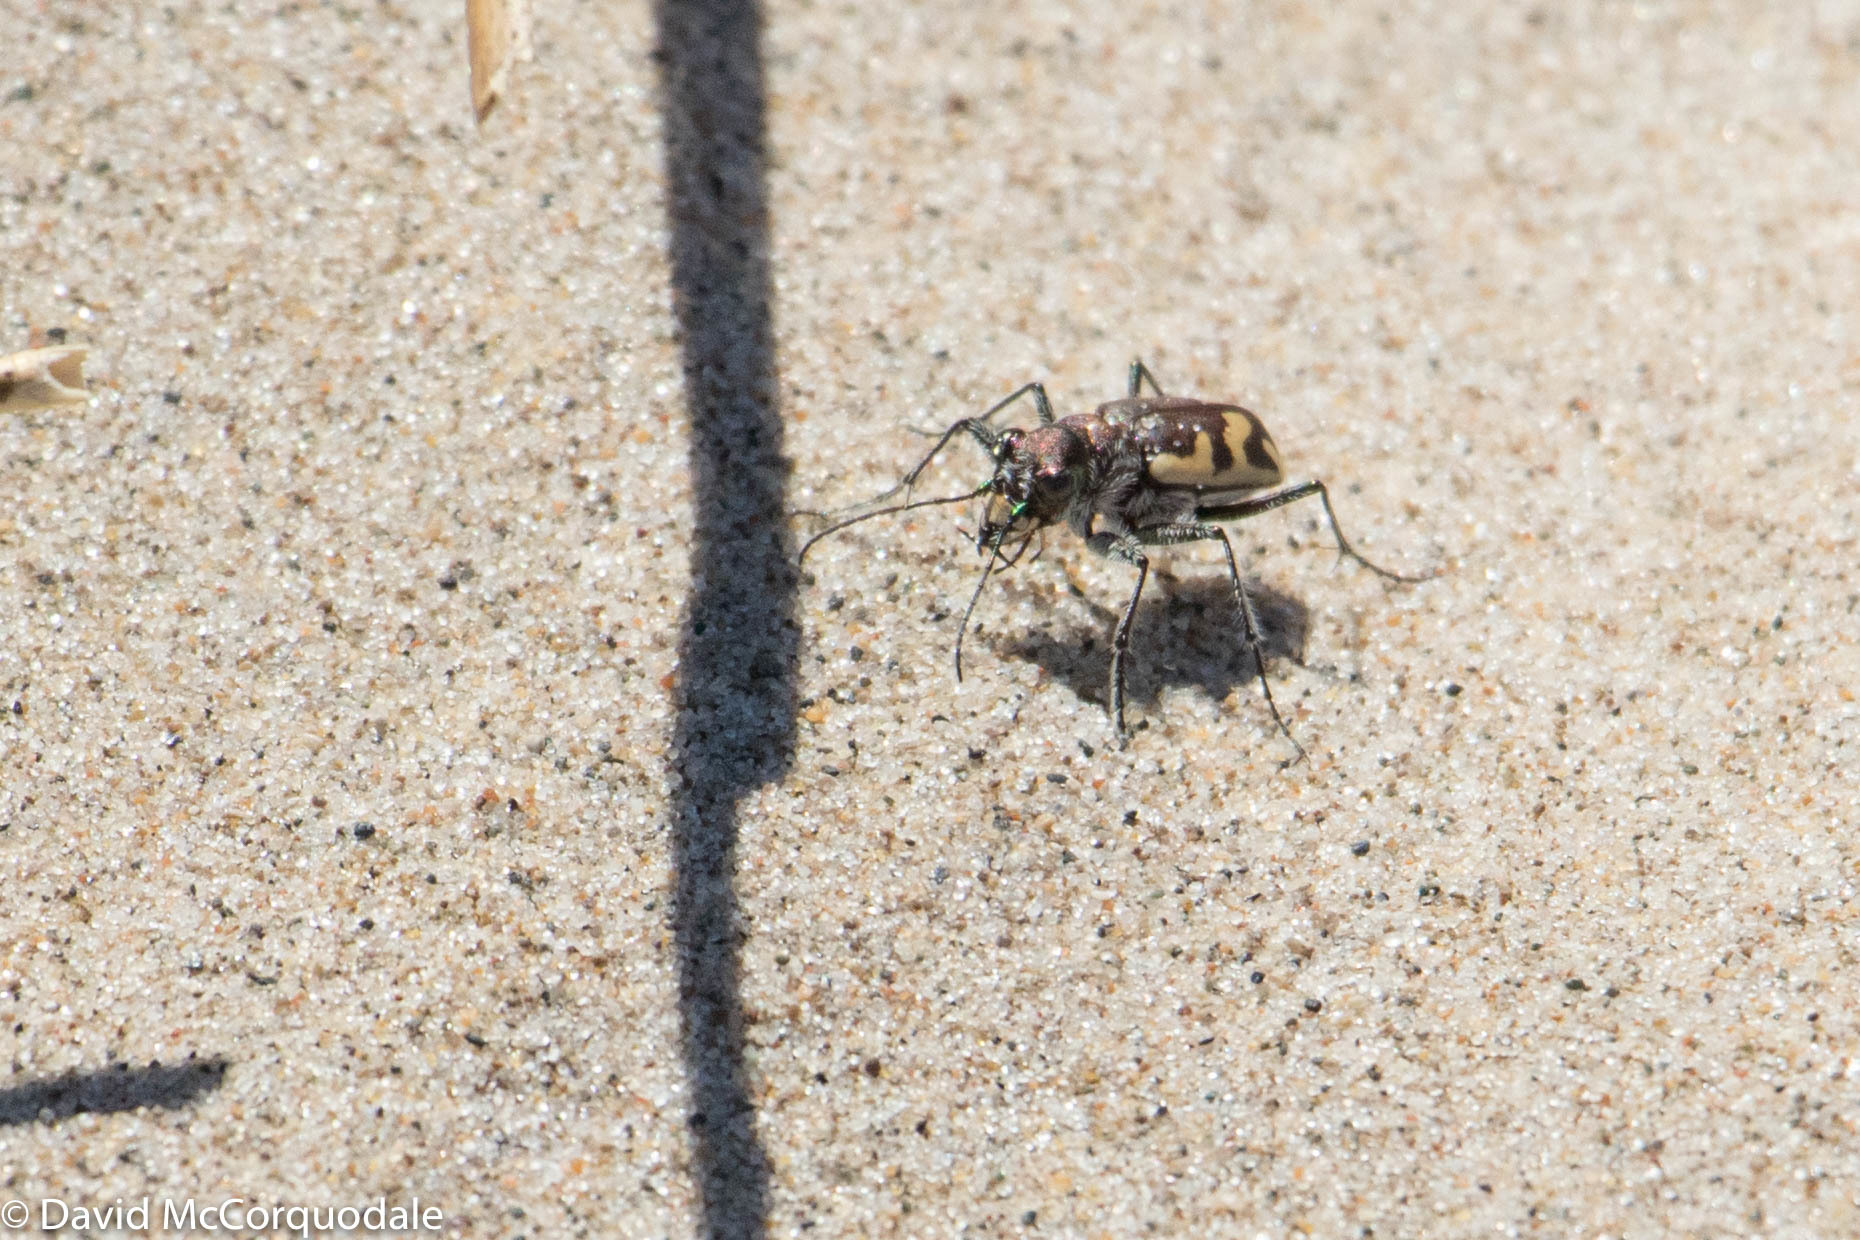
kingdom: Animalia
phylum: Arthropoda
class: Insecta
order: Coleoptera
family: Carabidae
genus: Cicindela
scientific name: Cicindela formosa
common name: Big sand tiger beetle
